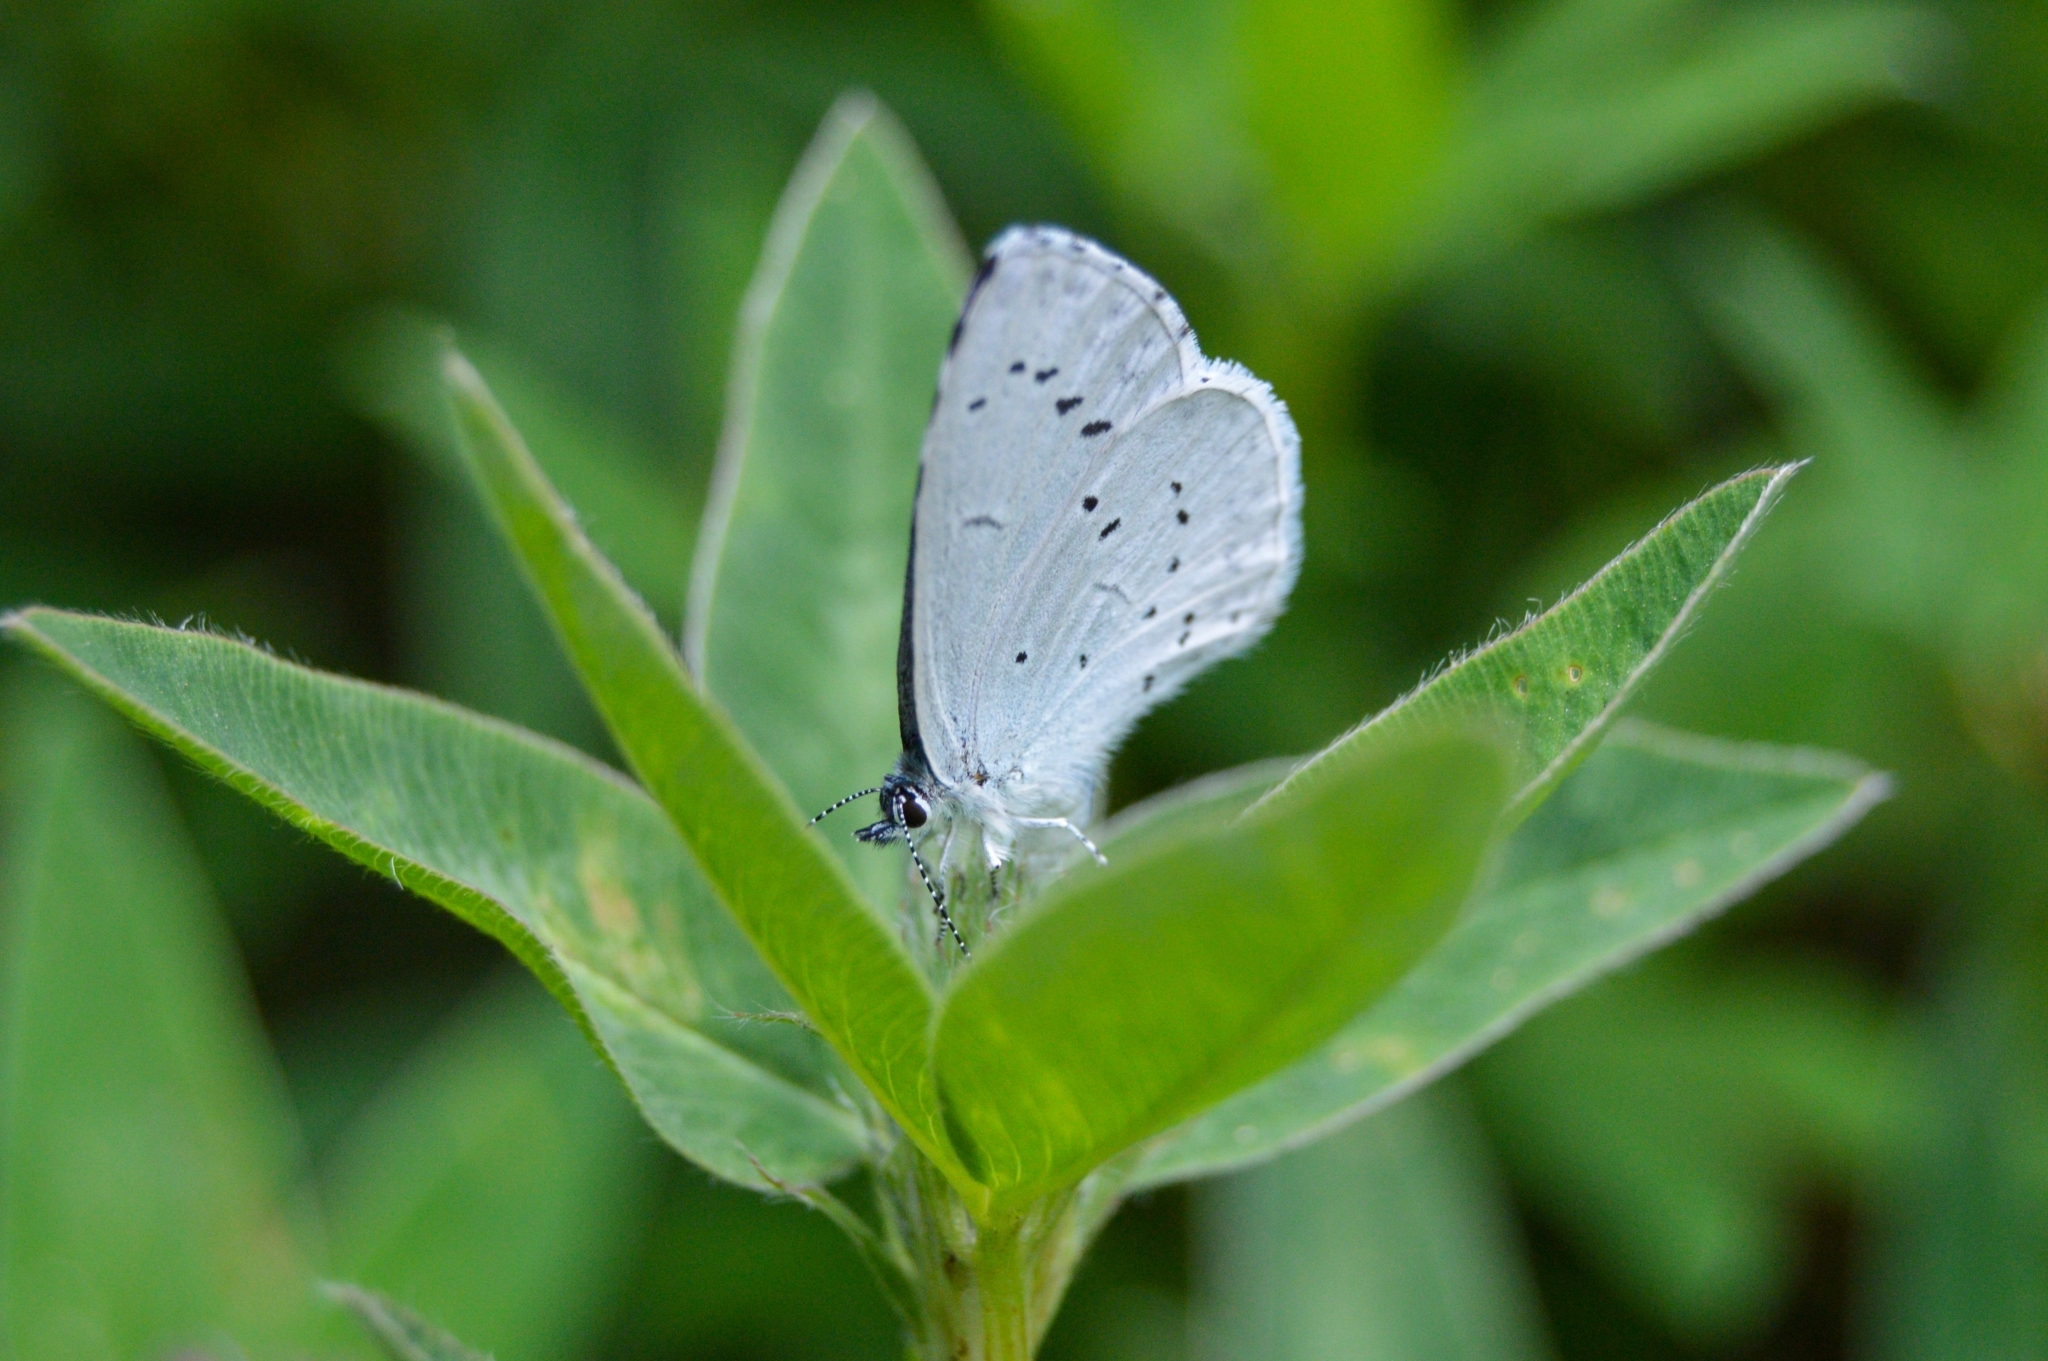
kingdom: Animalia
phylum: Arthropoda
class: Insecta
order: Lepidoptera
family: Lycaenidae
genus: Celastrina
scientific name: Celastrina argiolus
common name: Holly blue
